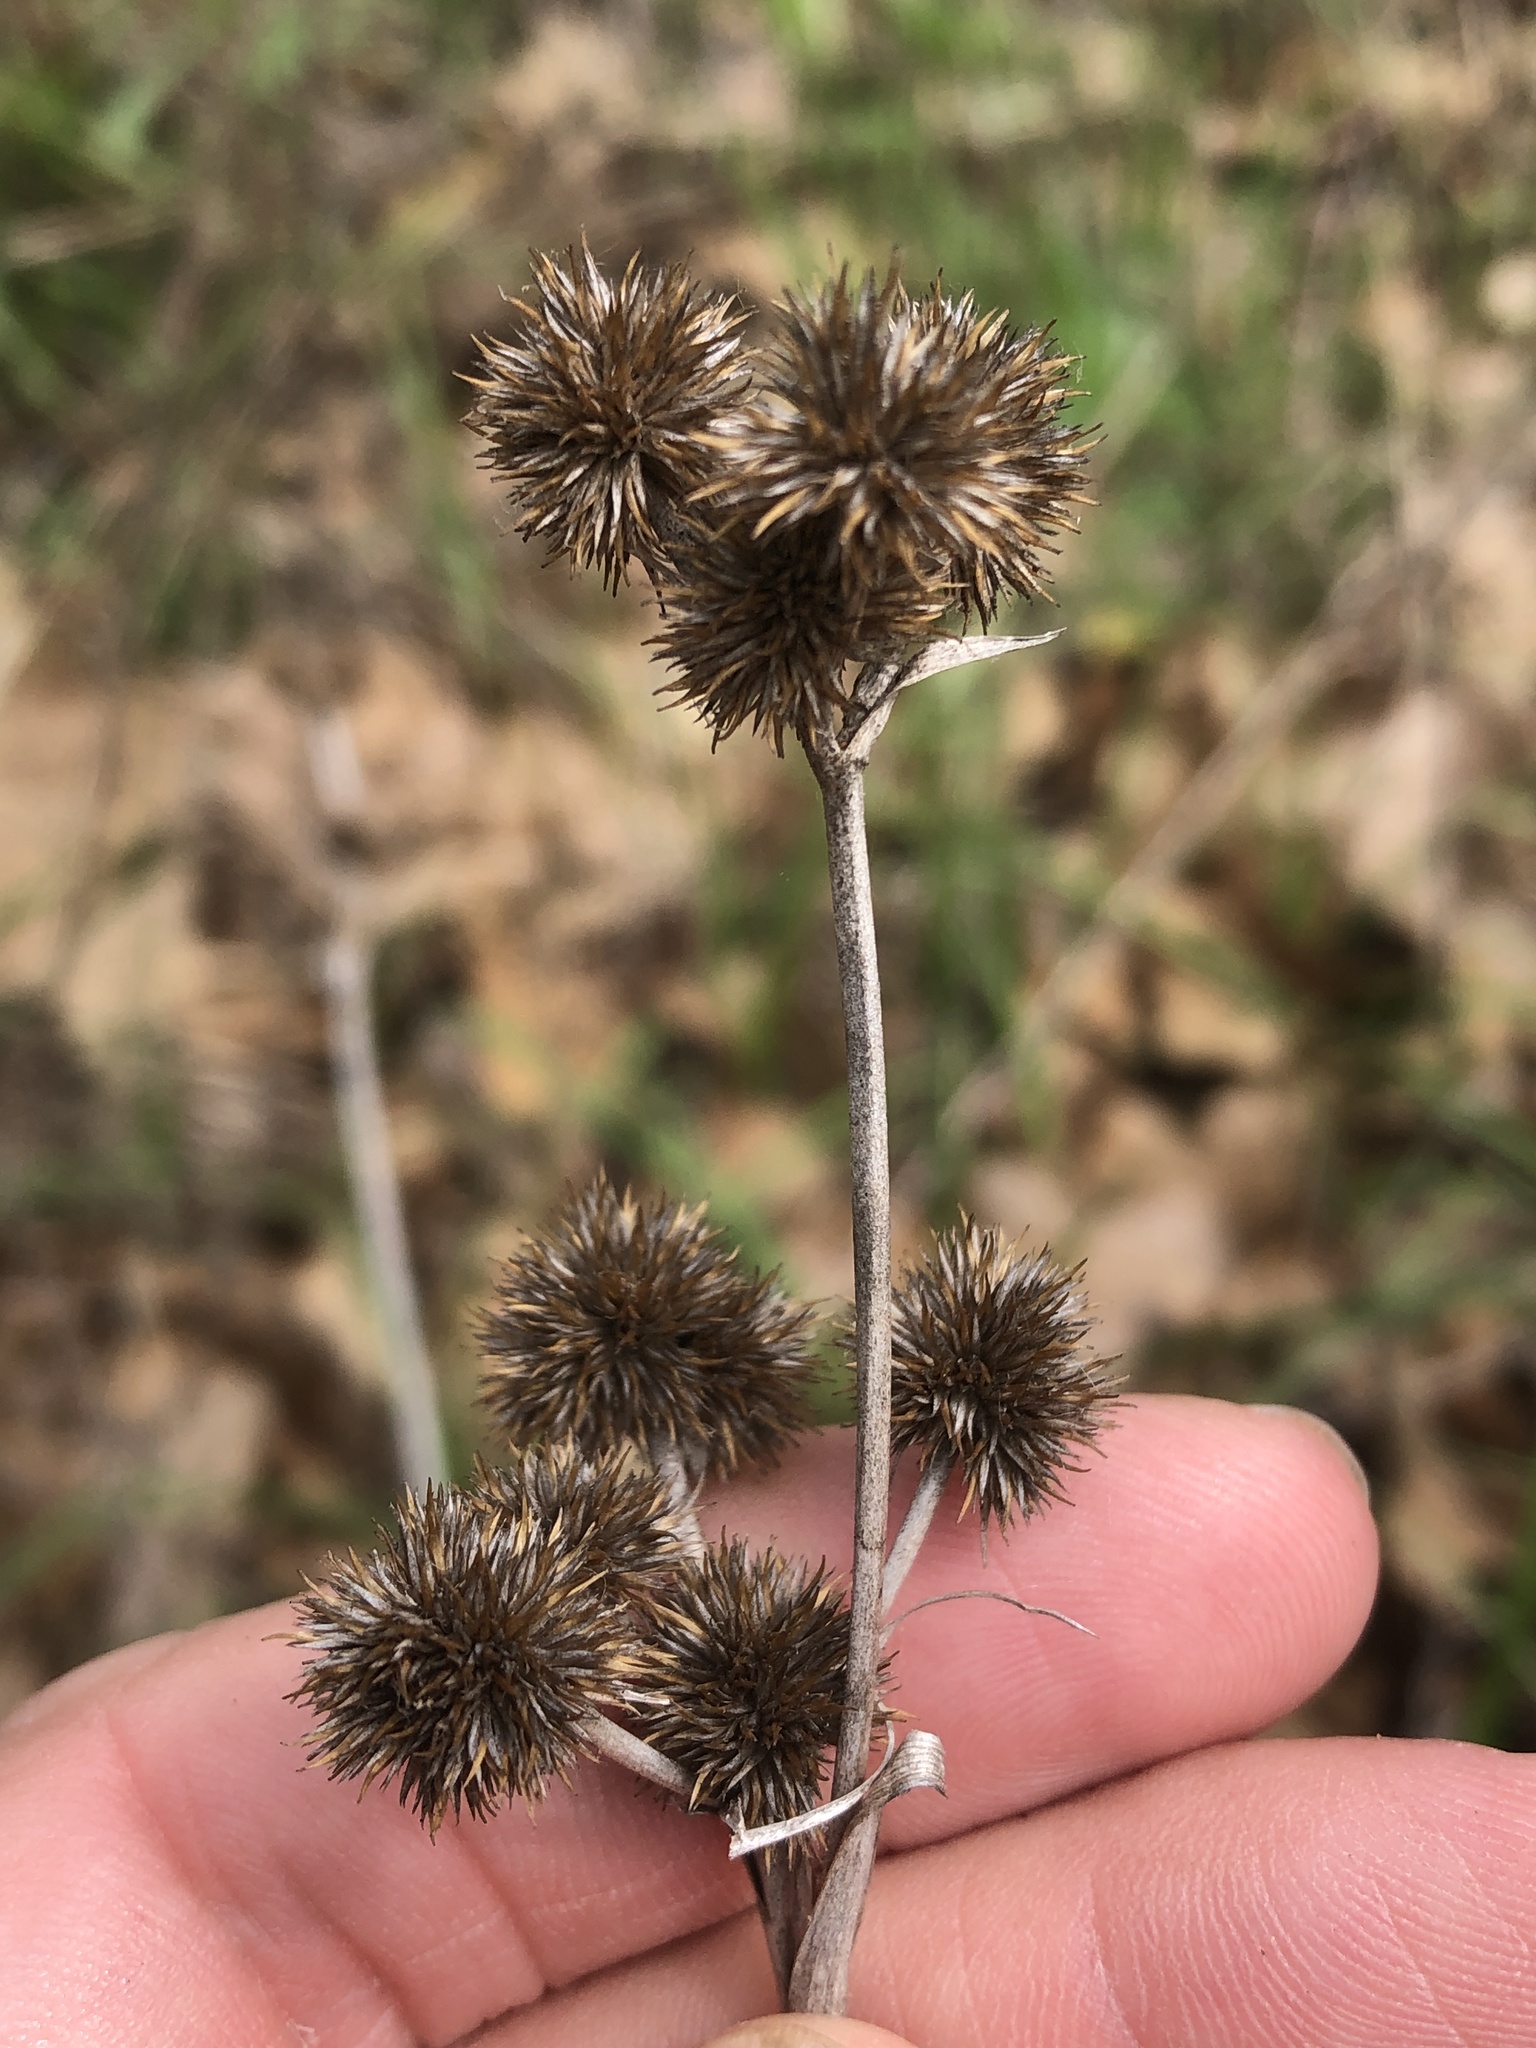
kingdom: Plantae
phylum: Tracheophyta
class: Liliopsida
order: Poales
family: Juncaceae
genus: Juncus
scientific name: Juncus torreyi
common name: Torrey's rush
